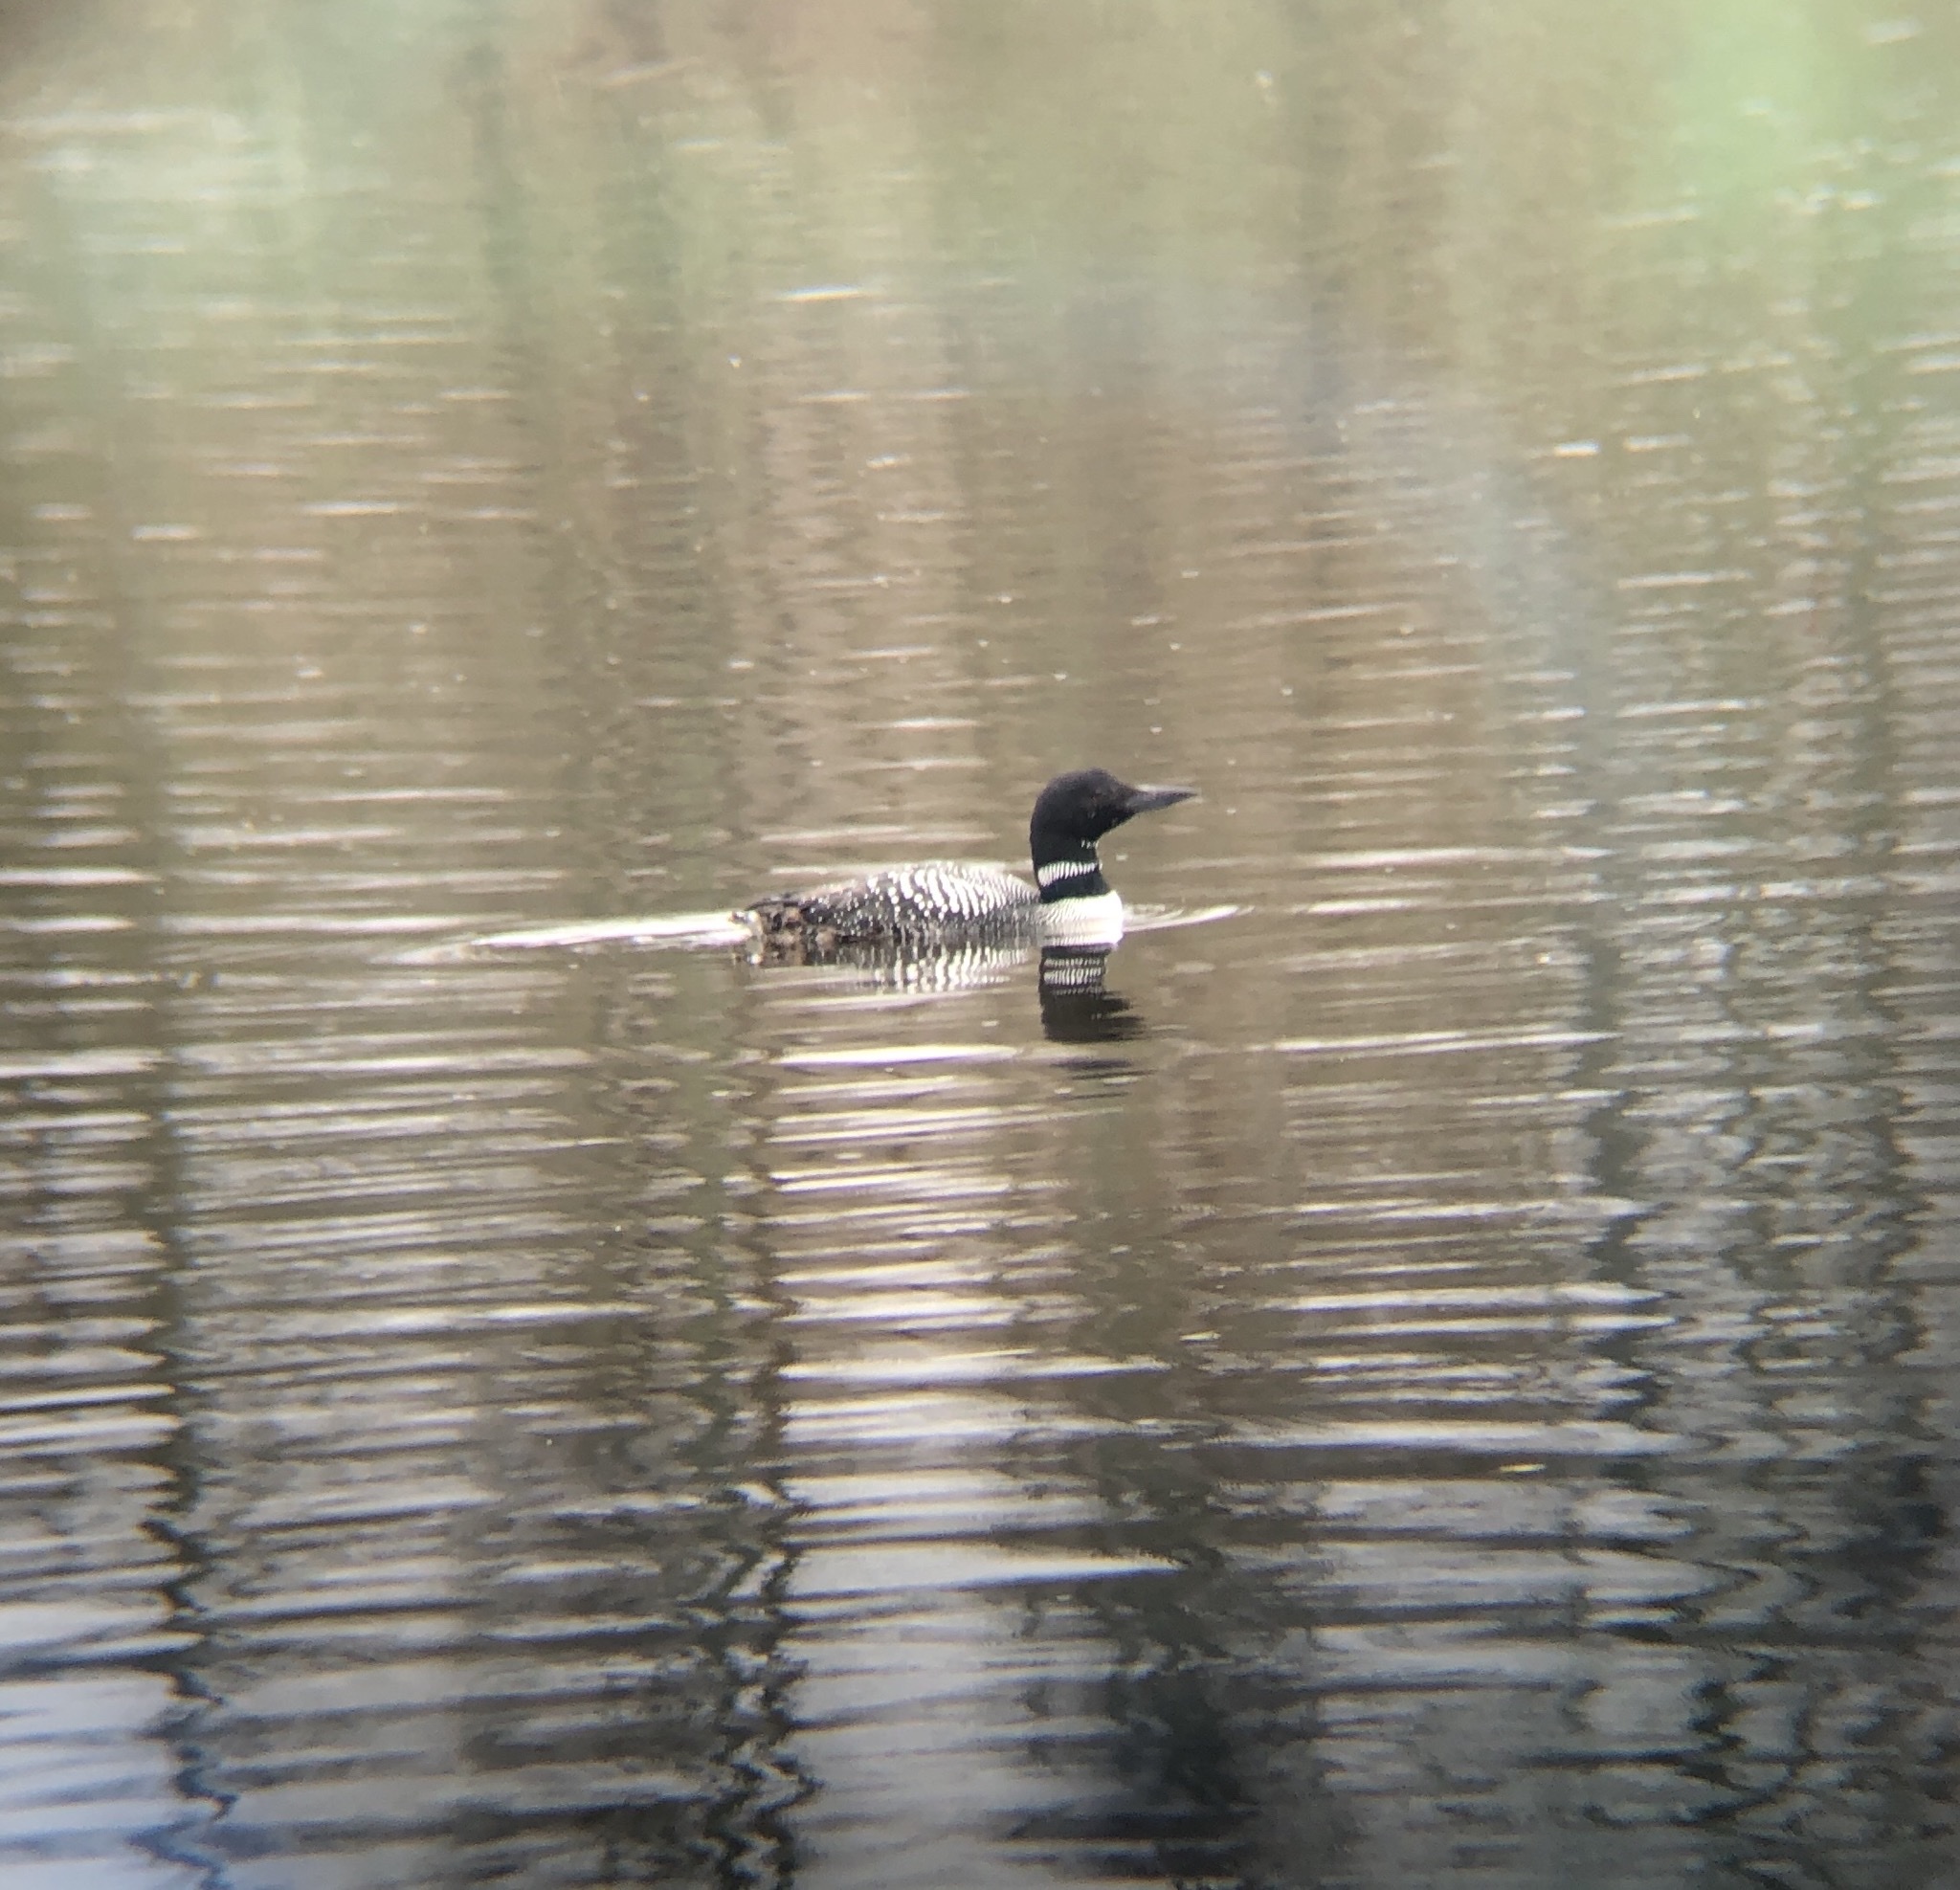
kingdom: Animalia
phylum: Chordata
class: Aves
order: Gaviiformes
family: Gaviidae
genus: Gavia
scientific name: Gavia immer
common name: Common loon
